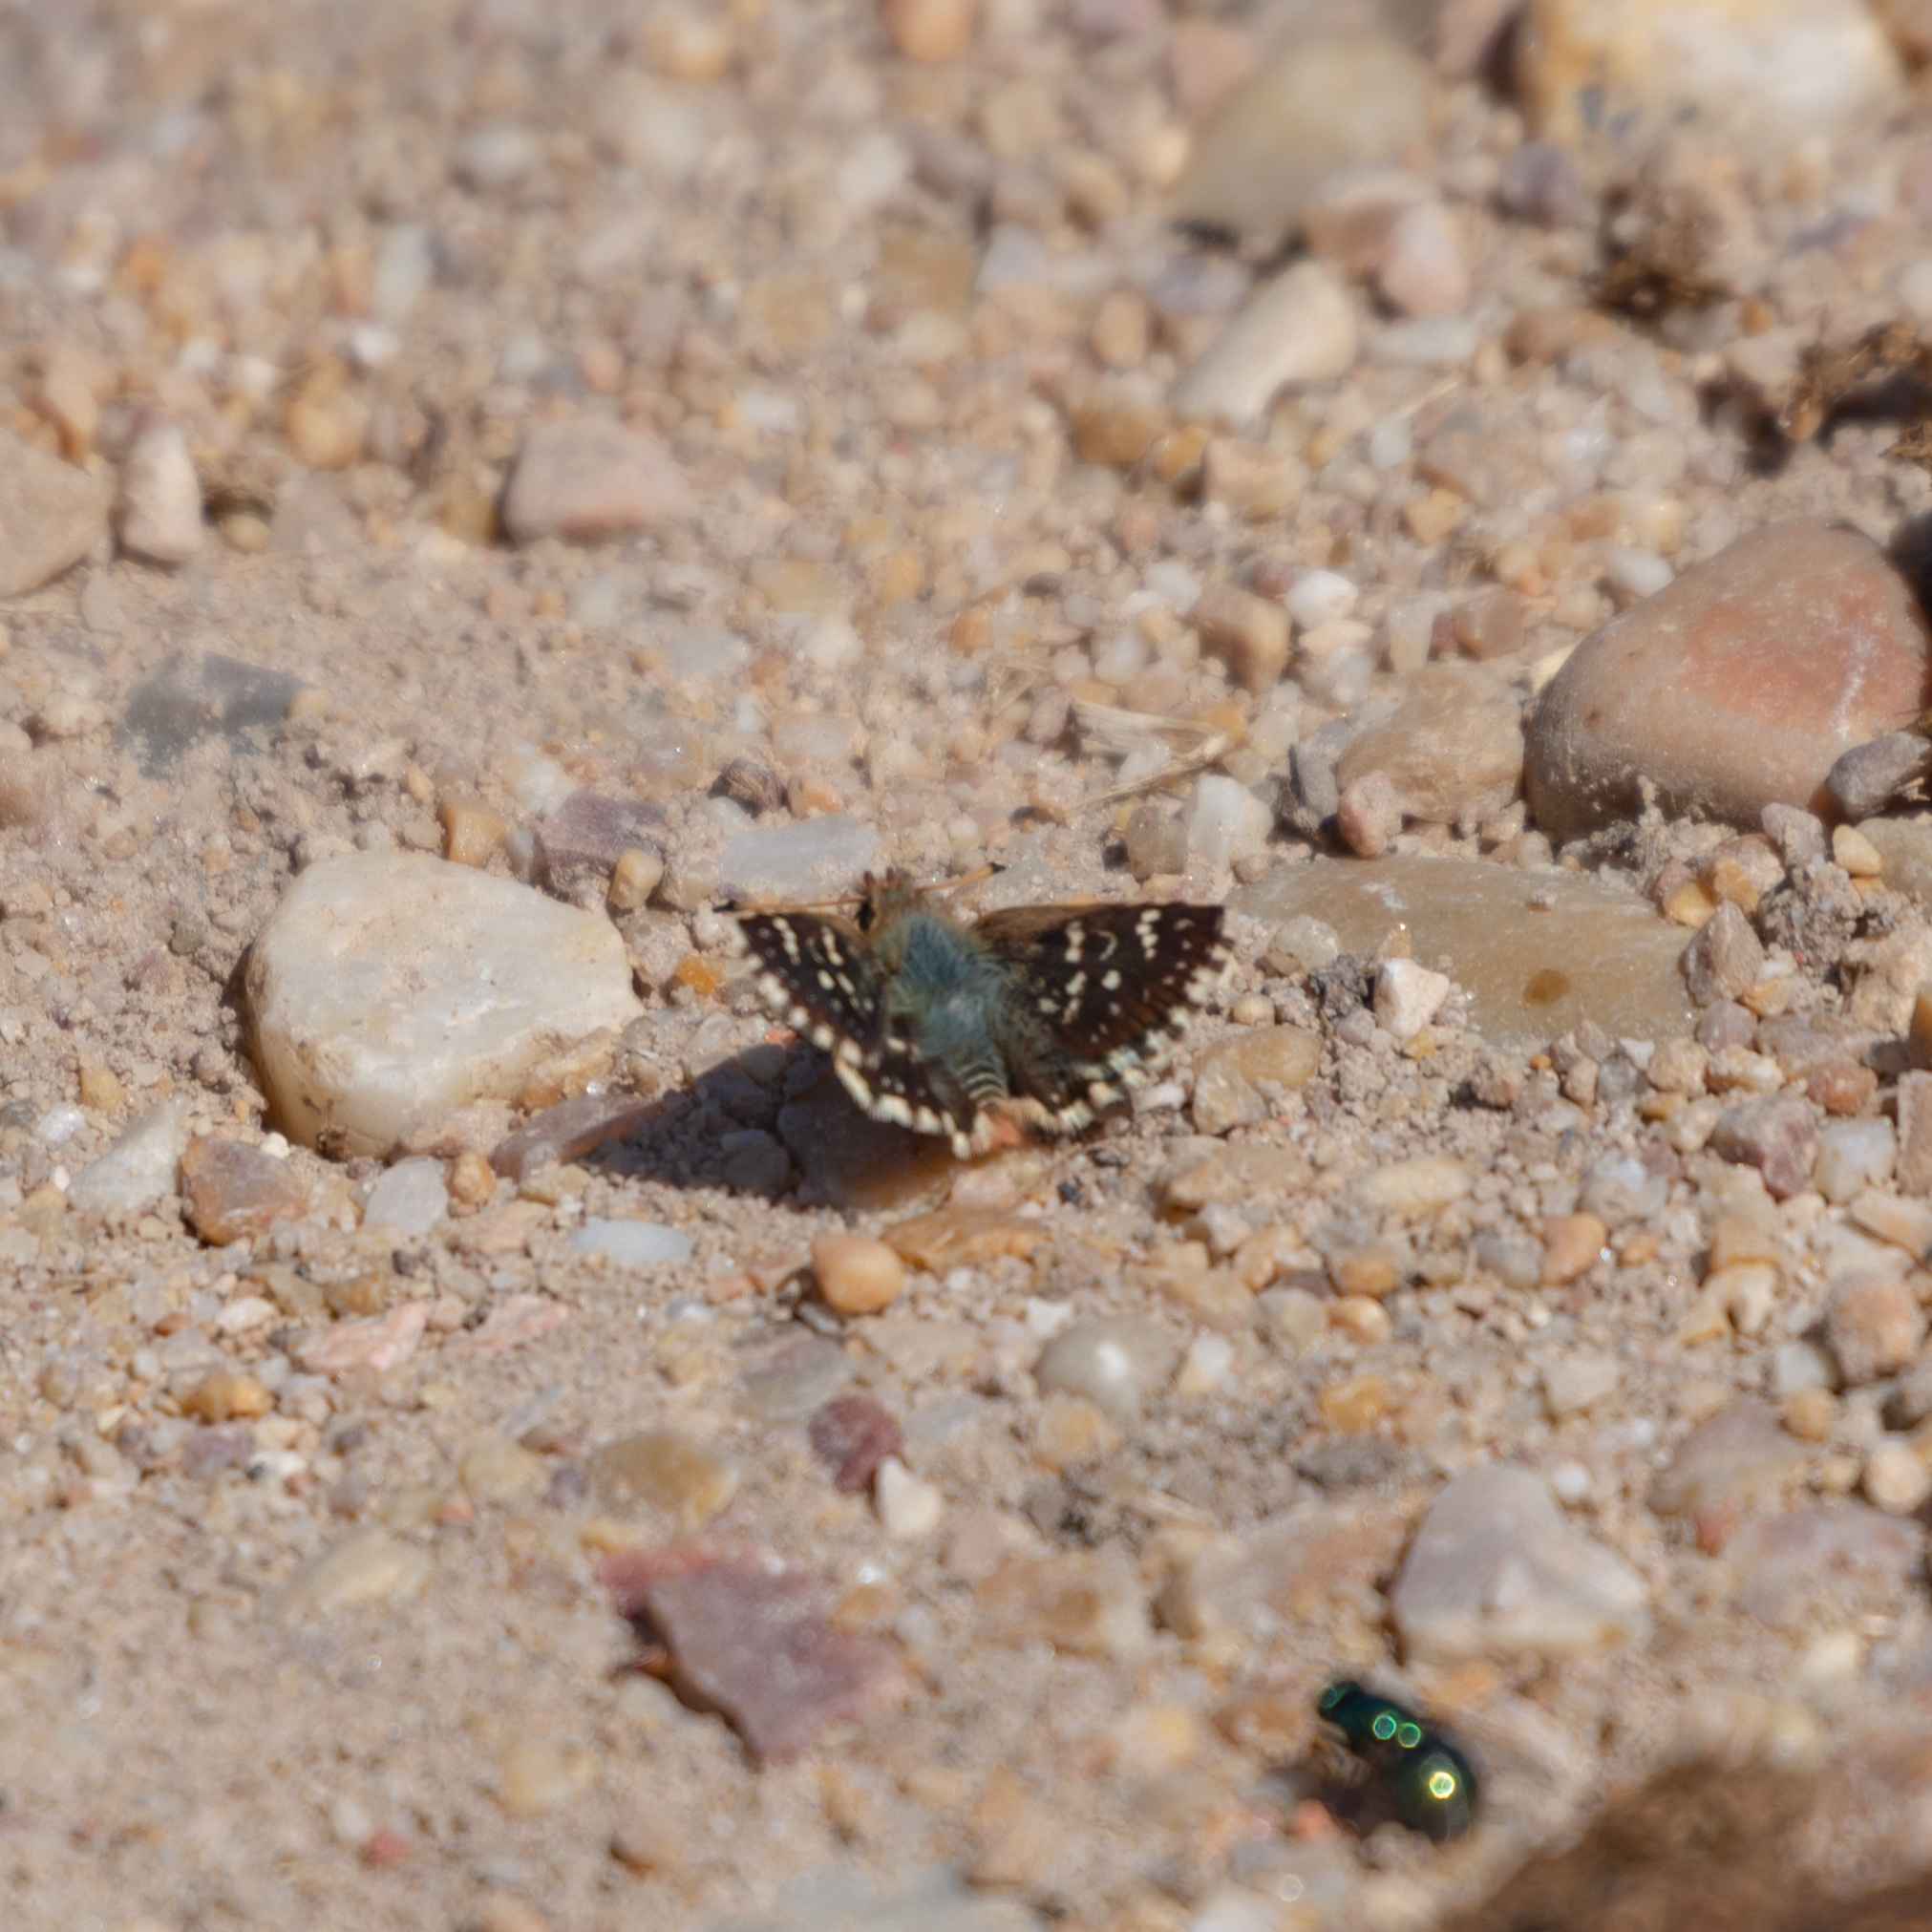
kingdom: Animalia
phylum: Arthropoda
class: Insecta
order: Lepidoptera
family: Hesperiidae
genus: Spialia
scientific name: Spialia sertorius
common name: Red underwing skipper
